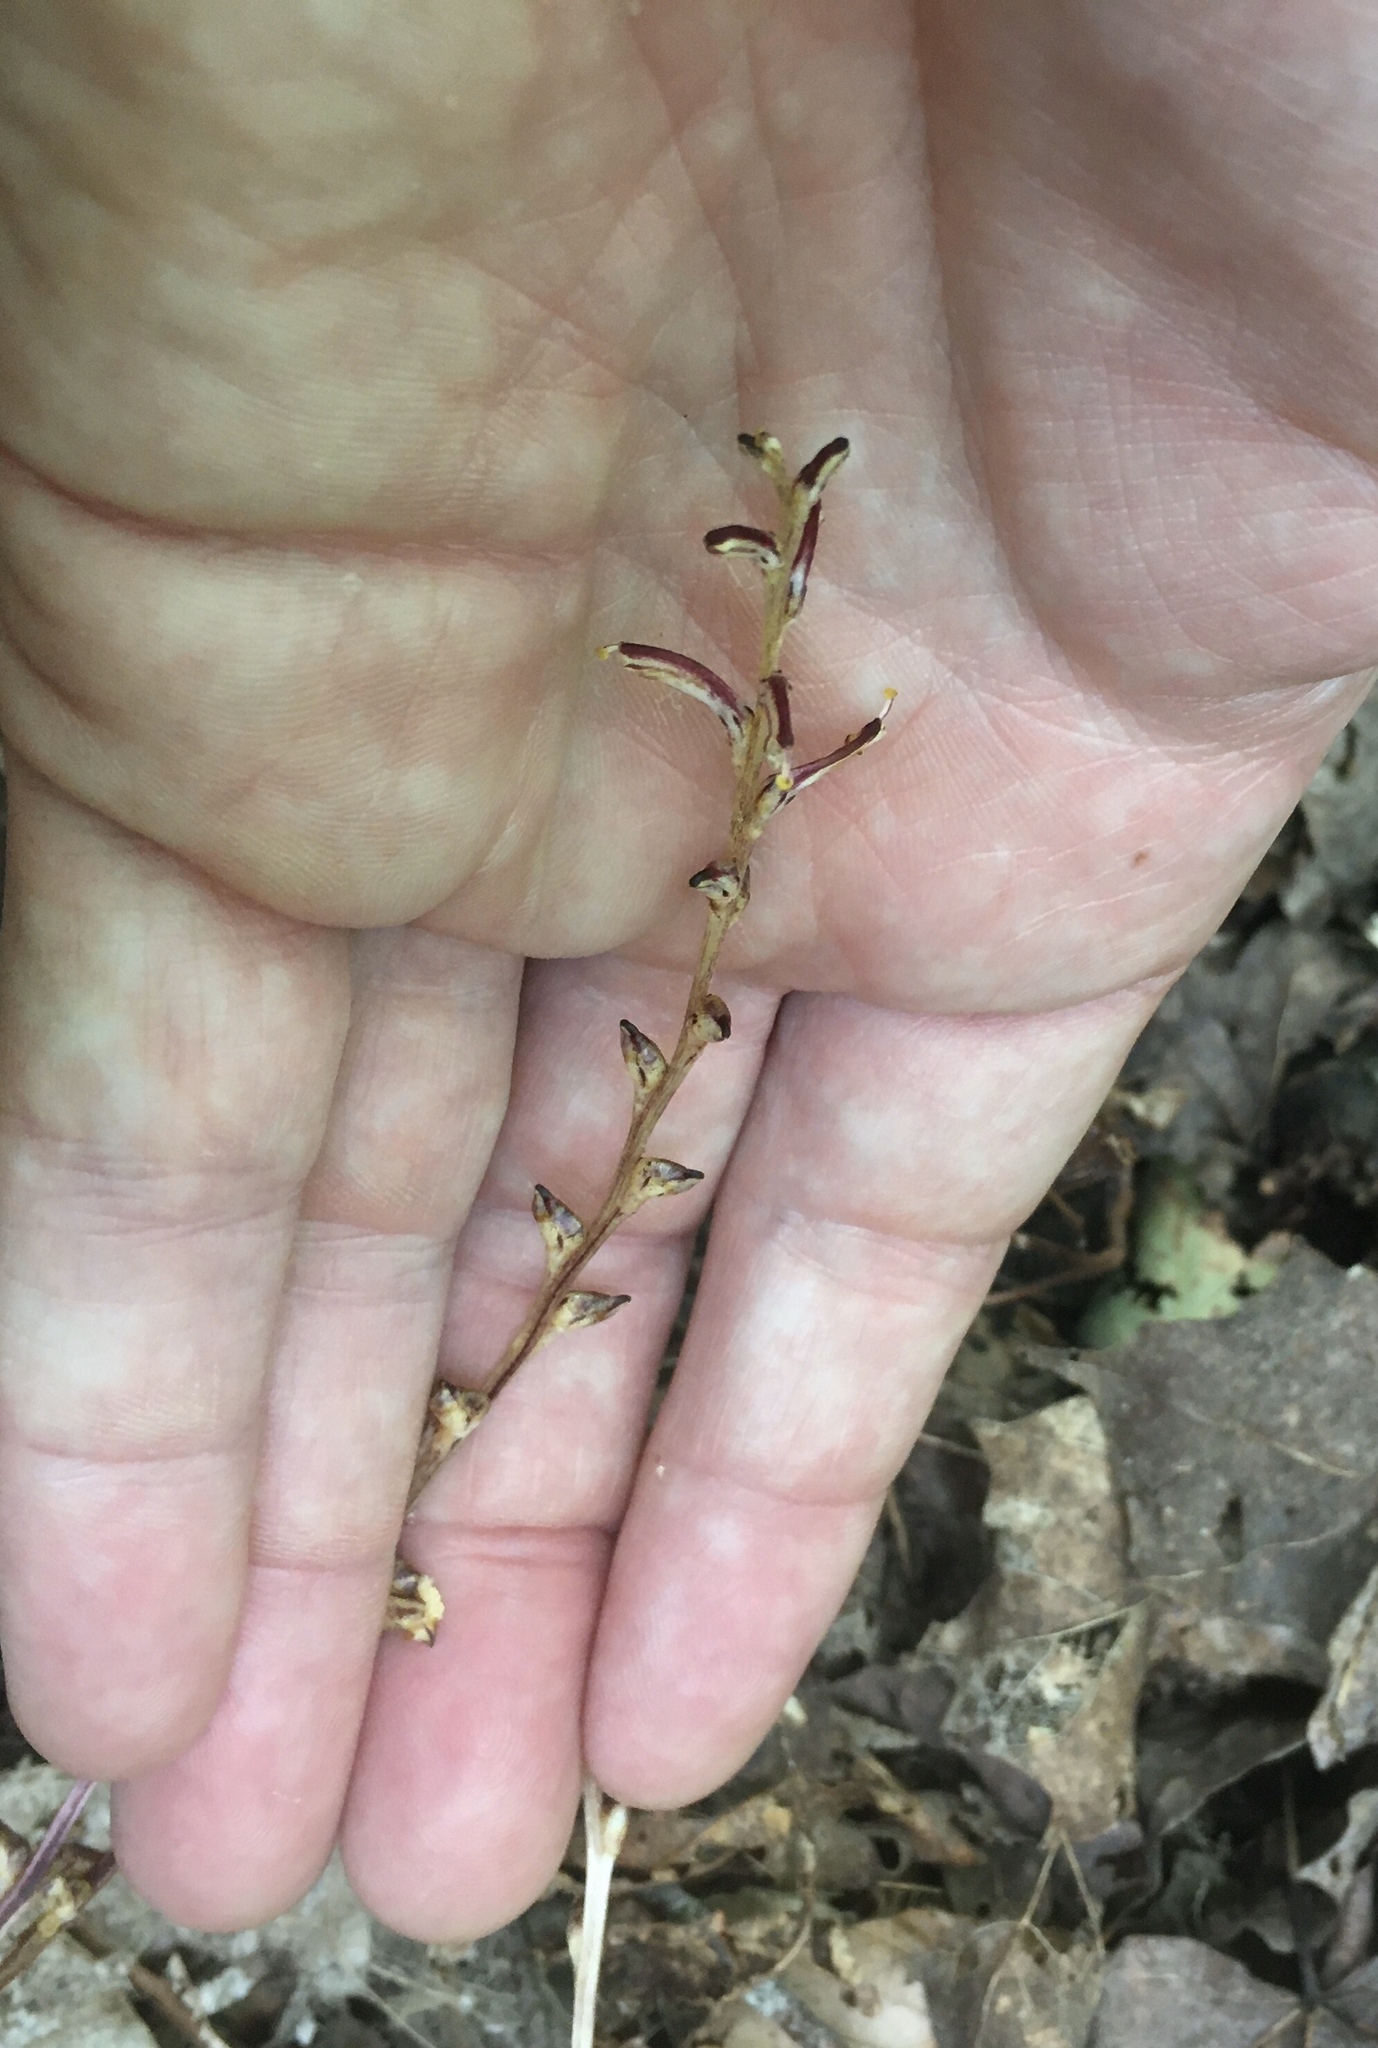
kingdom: Plantae
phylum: Tracheophyta
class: Magnoliopsida
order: Lamiales
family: Orobanchaceae
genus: Epifagus
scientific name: Epifagus virginiana
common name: Beechdrops
